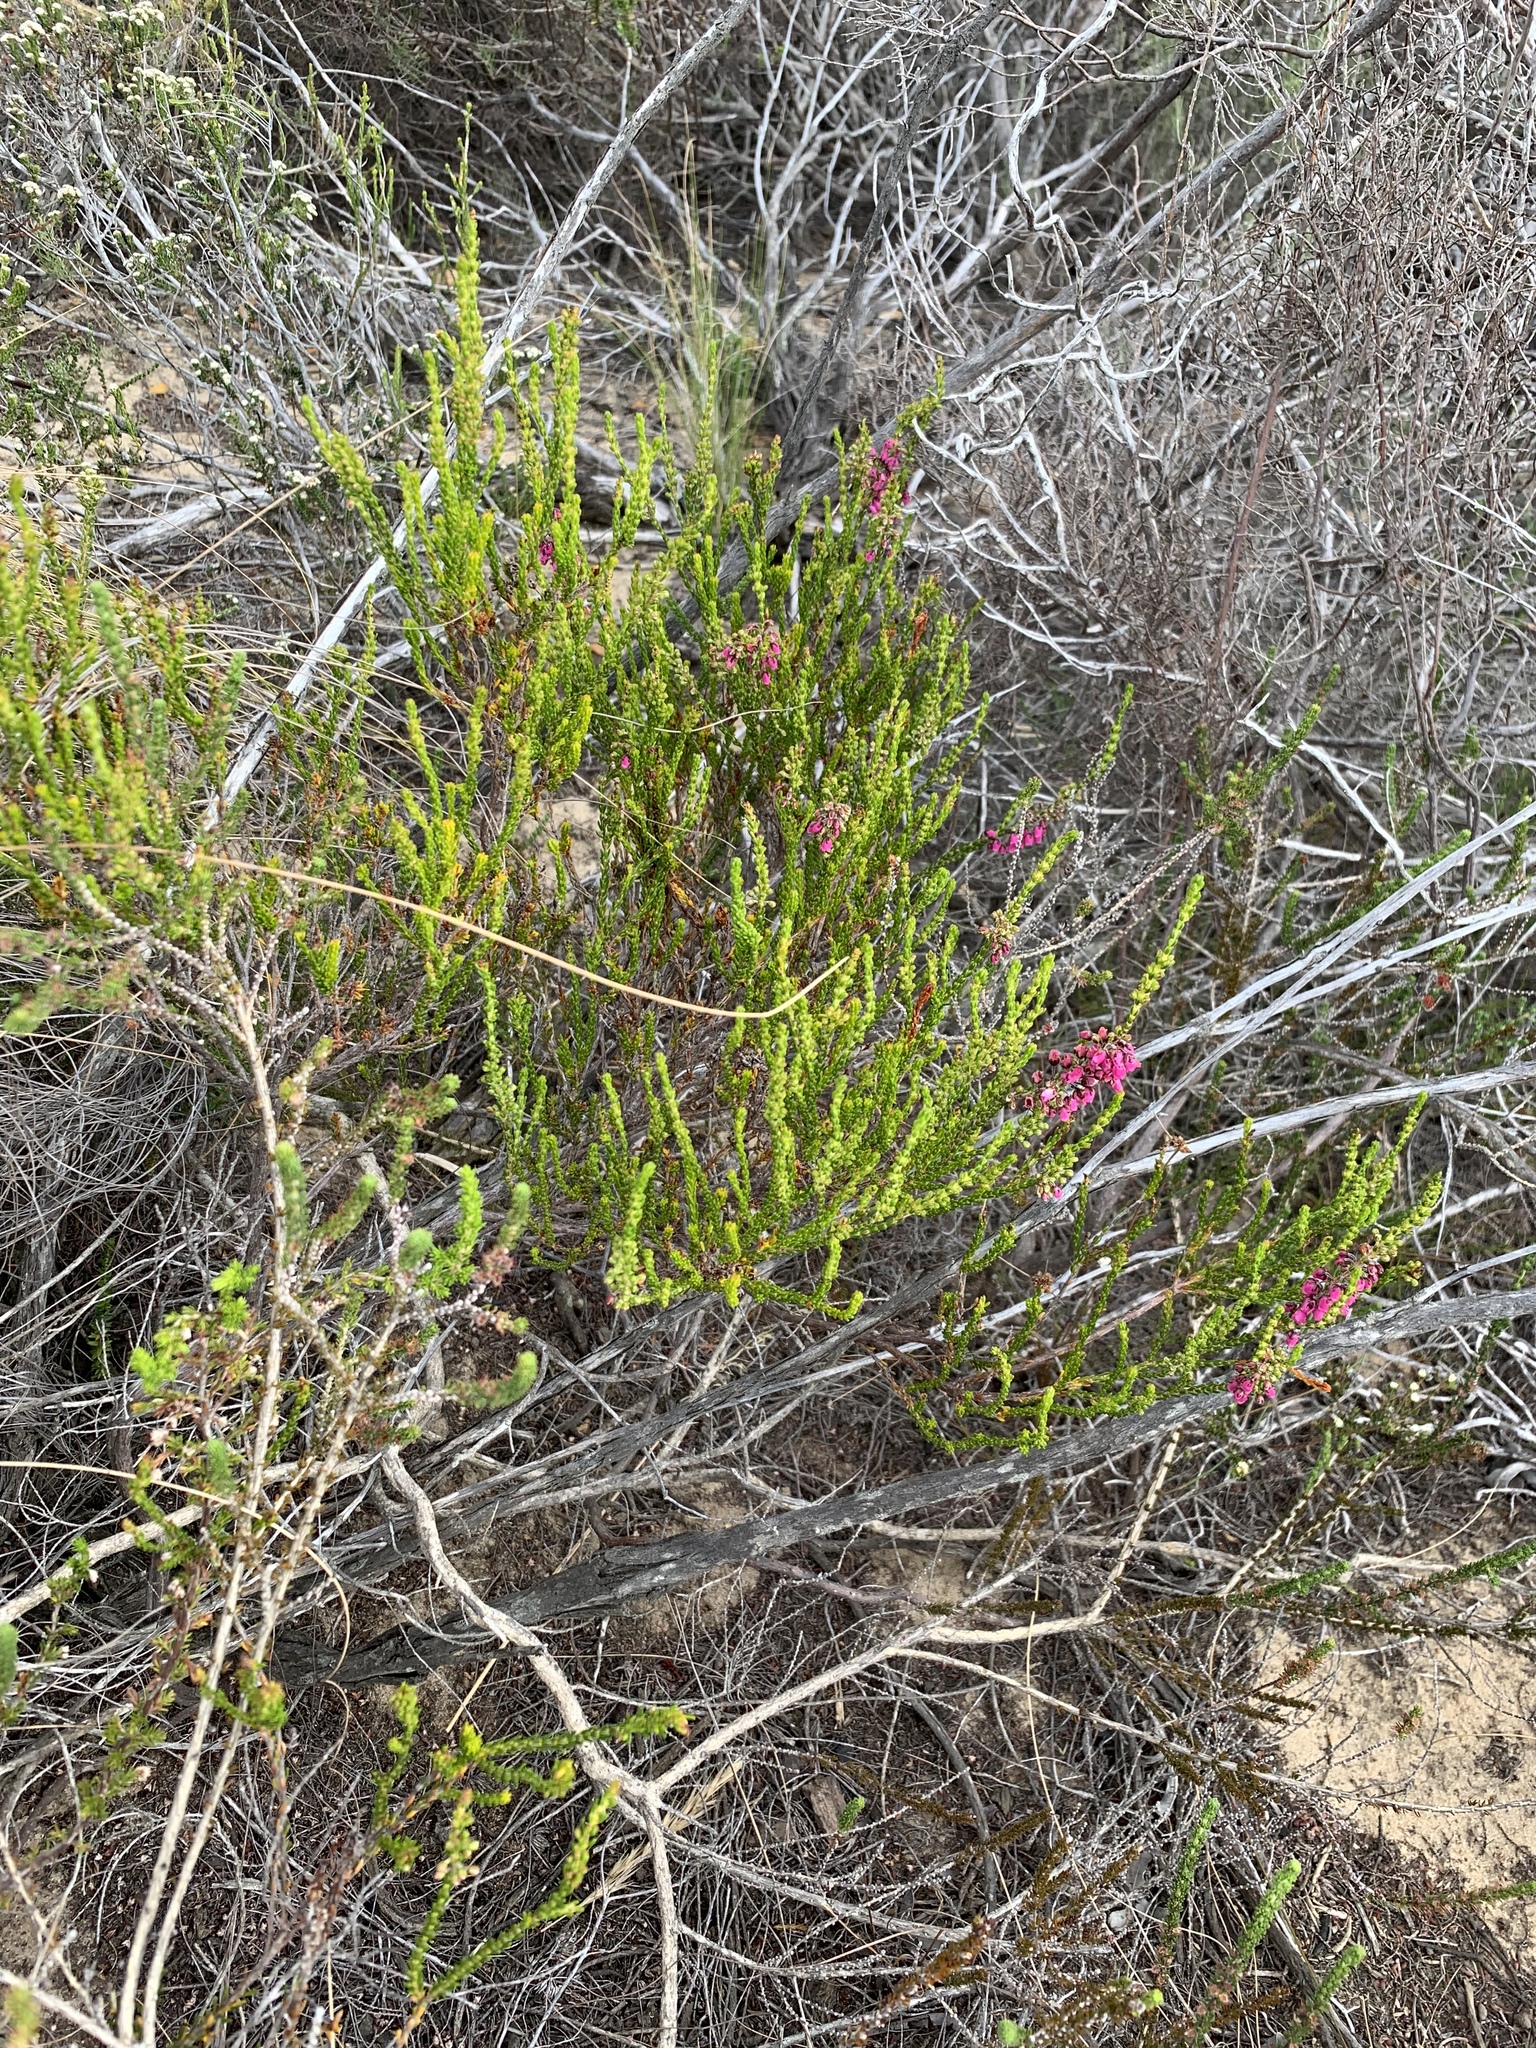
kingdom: Plantae
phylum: Tracheophyta
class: Magnoliopsida
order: Ericales
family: Ericaceae
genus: Erica
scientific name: Erica pulchella
